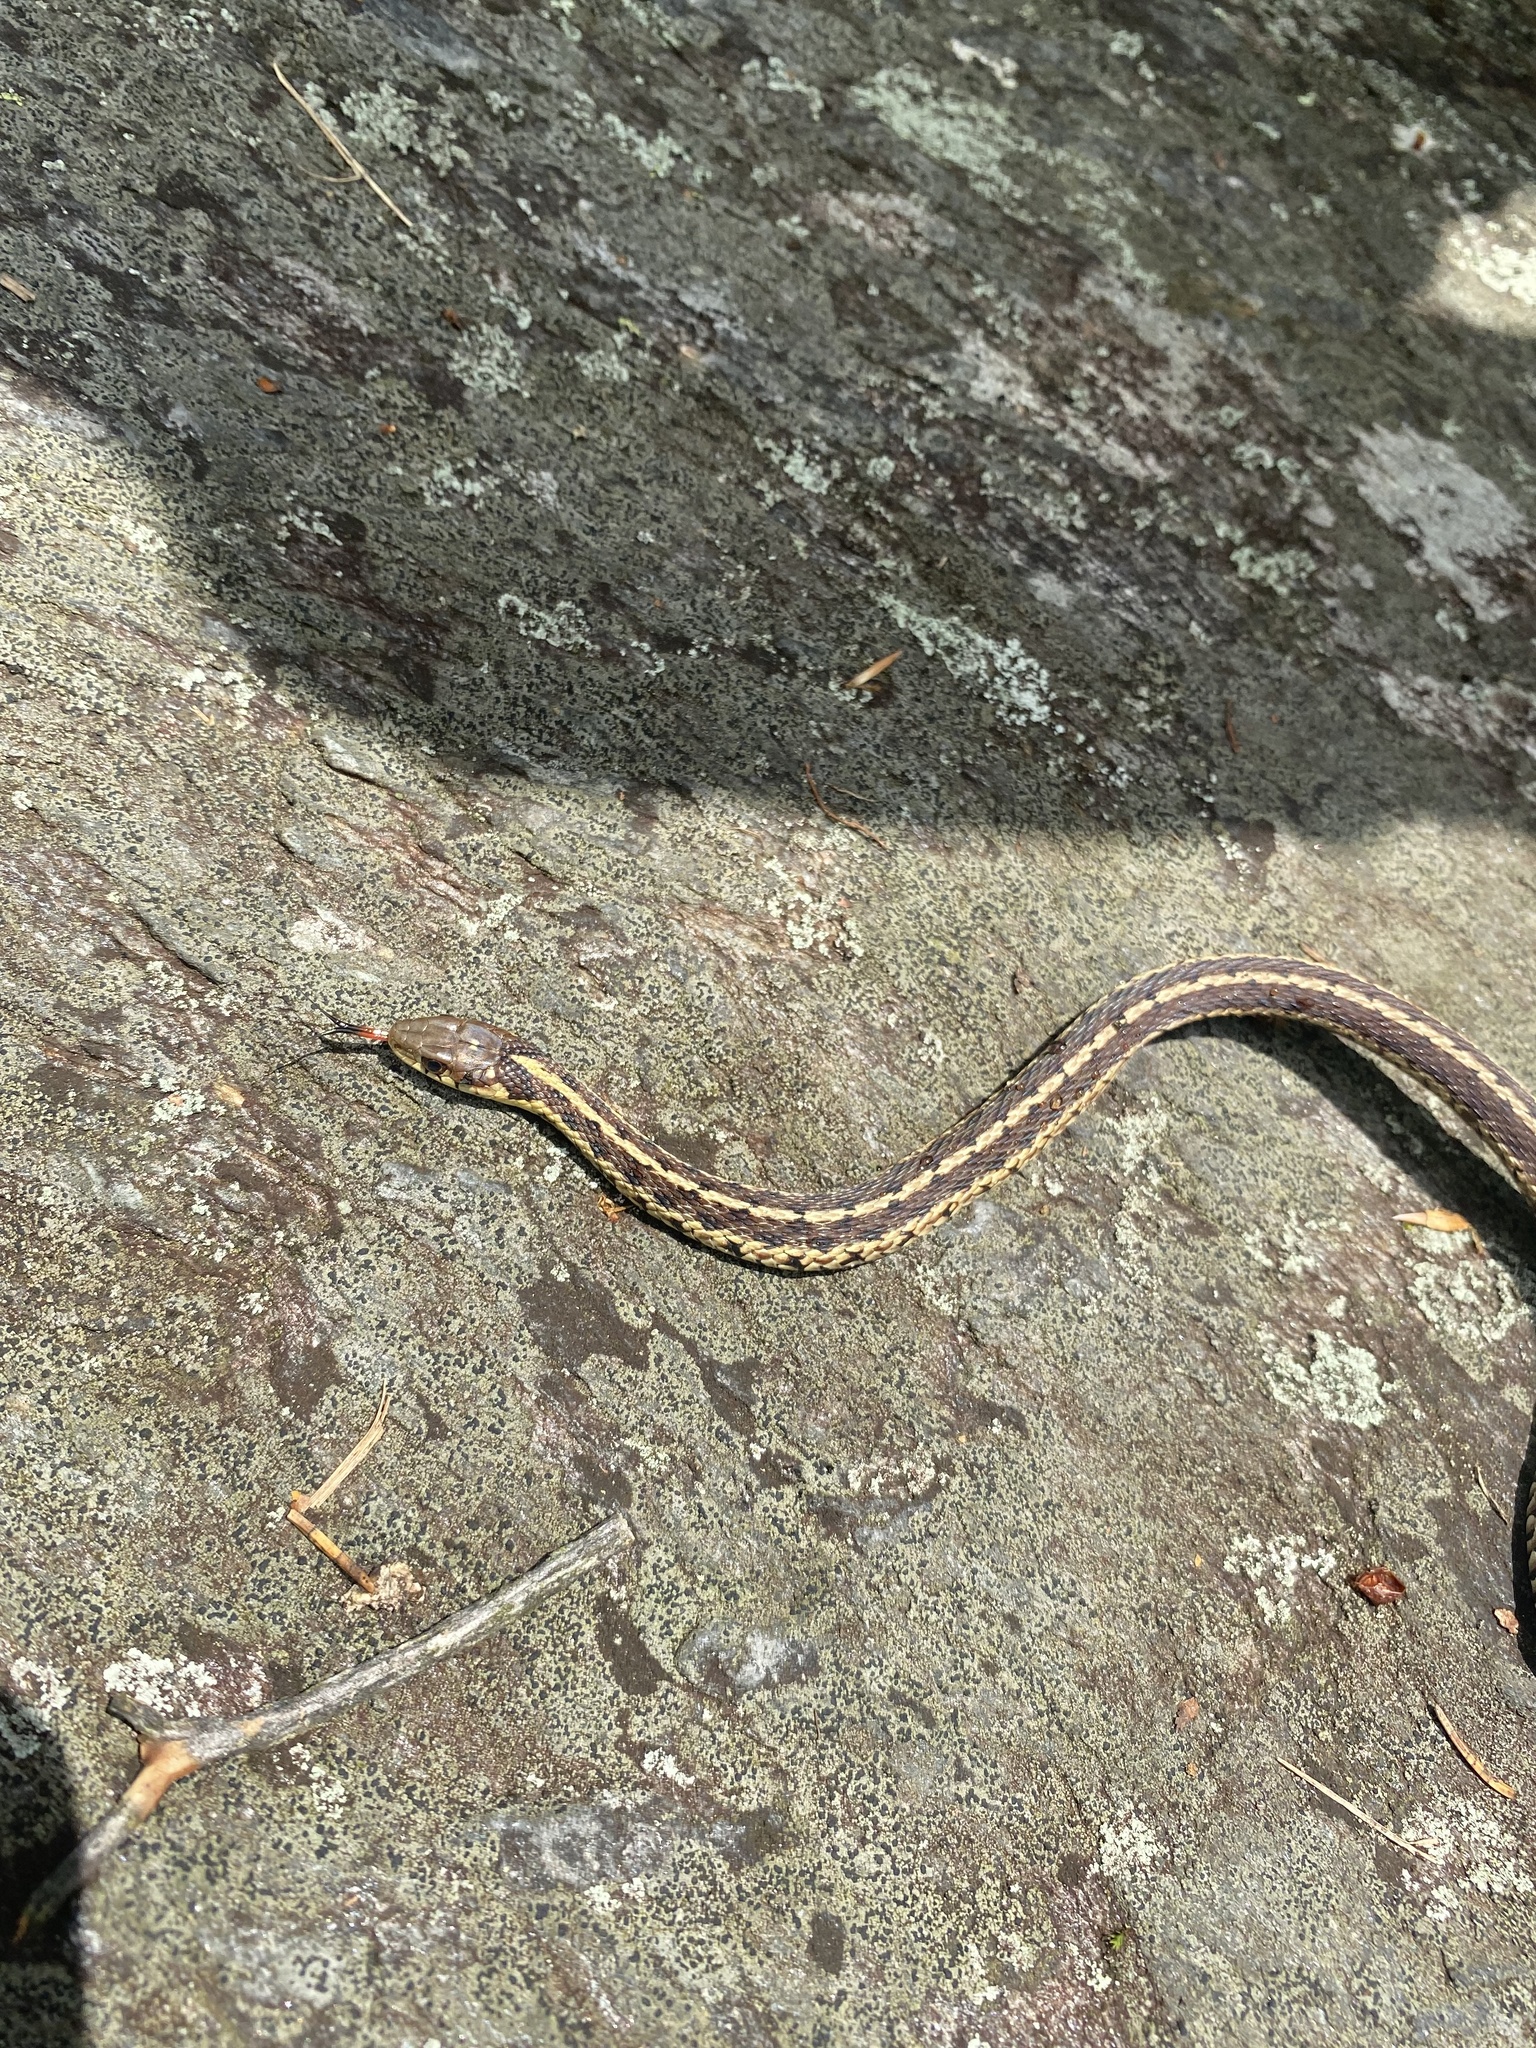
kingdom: Animalia
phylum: Chordata
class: Squamata
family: Colubridae
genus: Thamnophis
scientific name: Thamnophis sirtalis
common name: Common garter snake
